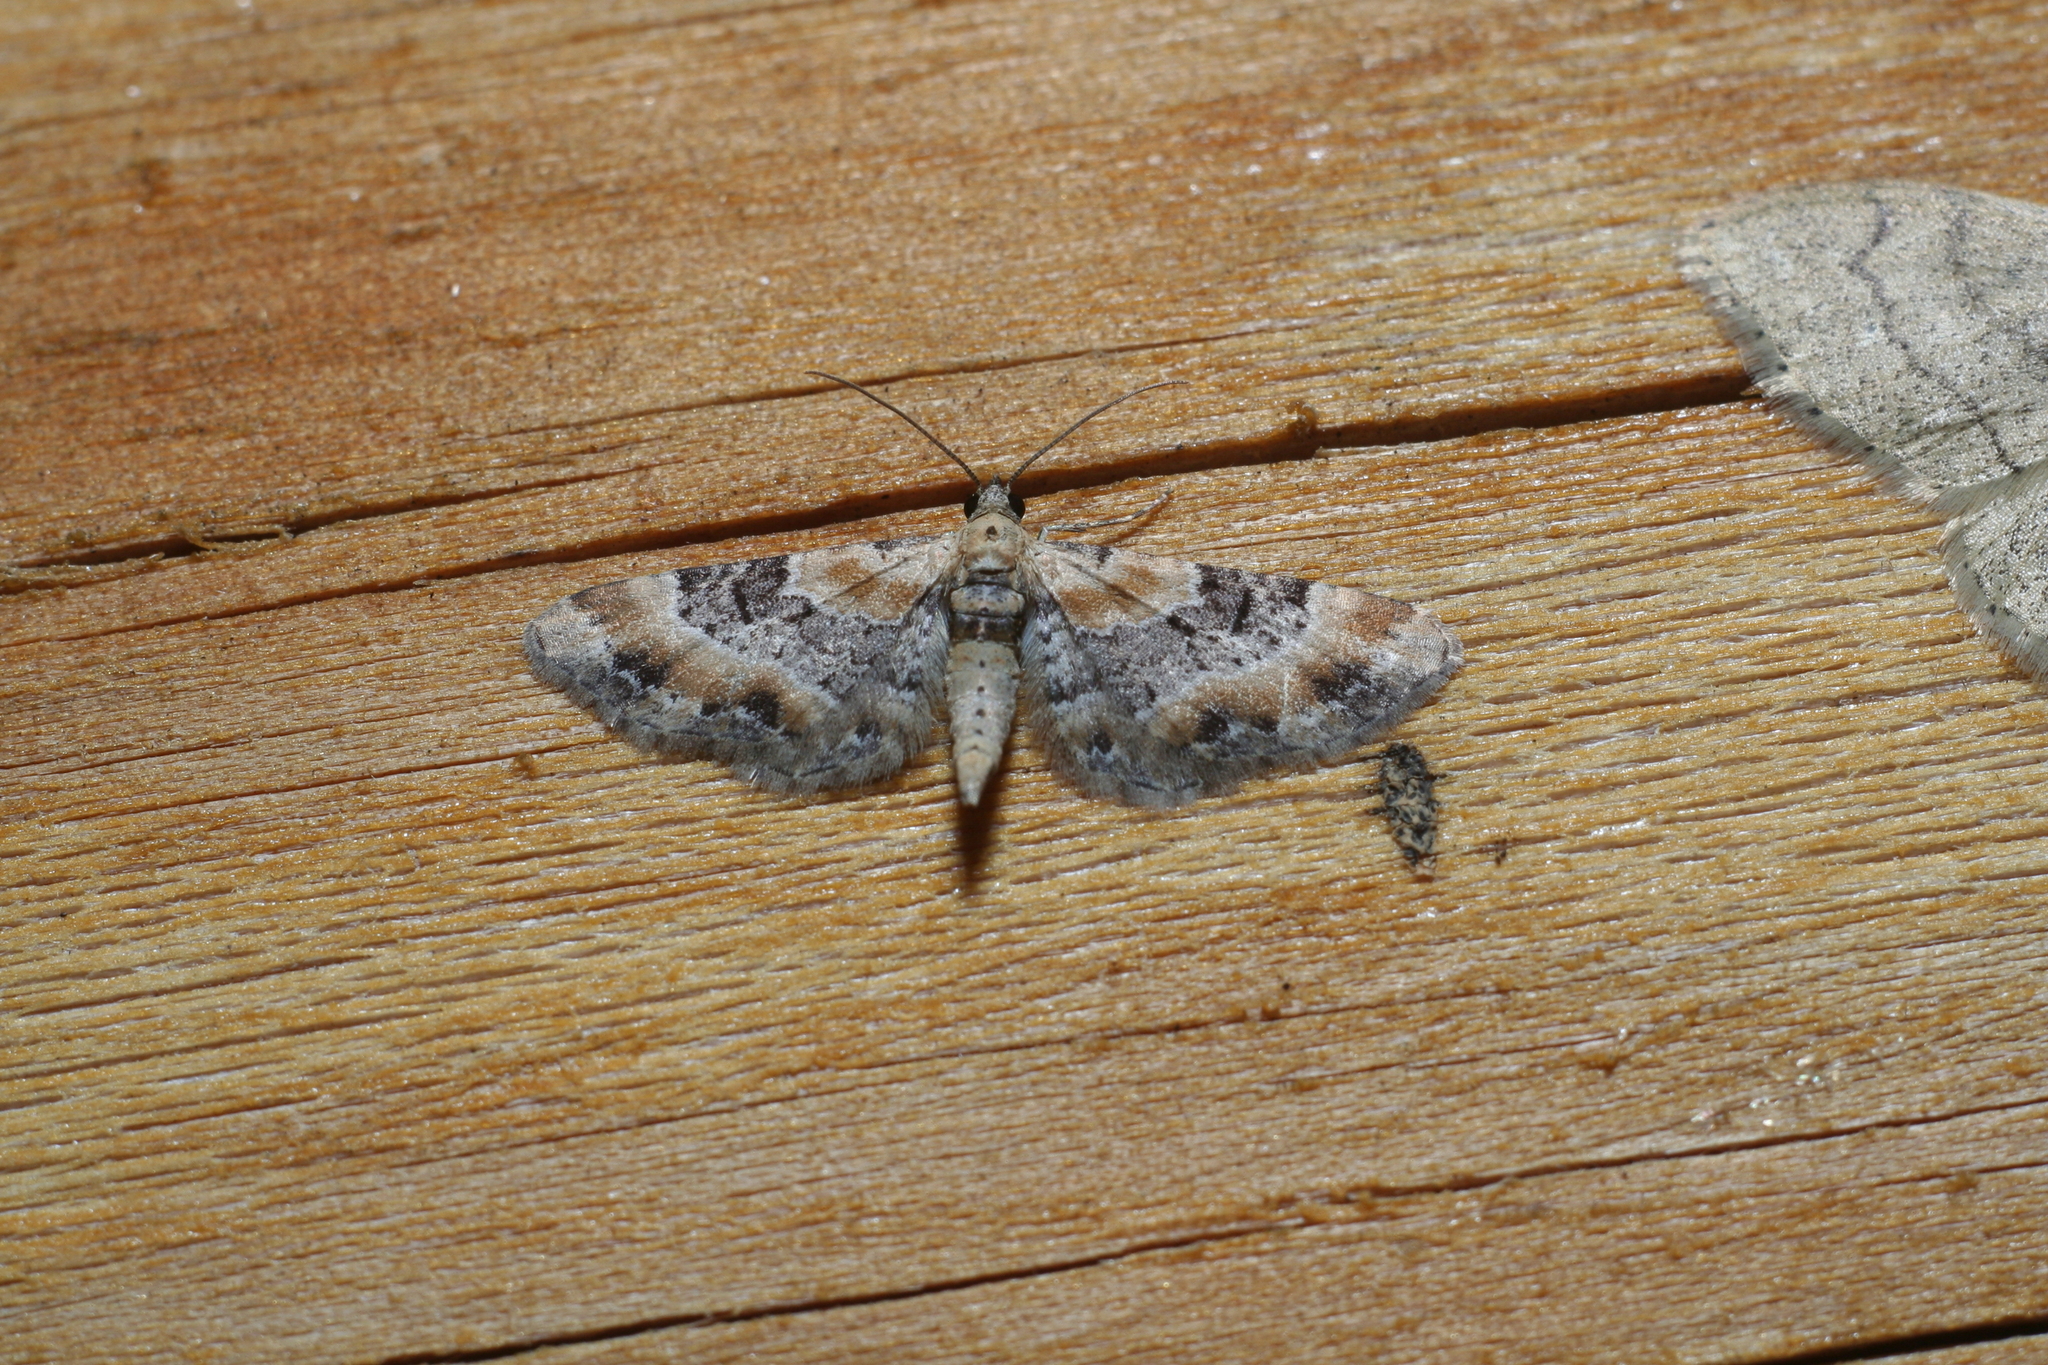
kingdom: Animalia
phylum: Arthropoda
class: Insecta
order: Lepidoptera
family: Geometridae
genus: Eupithecia
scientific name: Eupithecia linariata
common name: Toadflax pug
